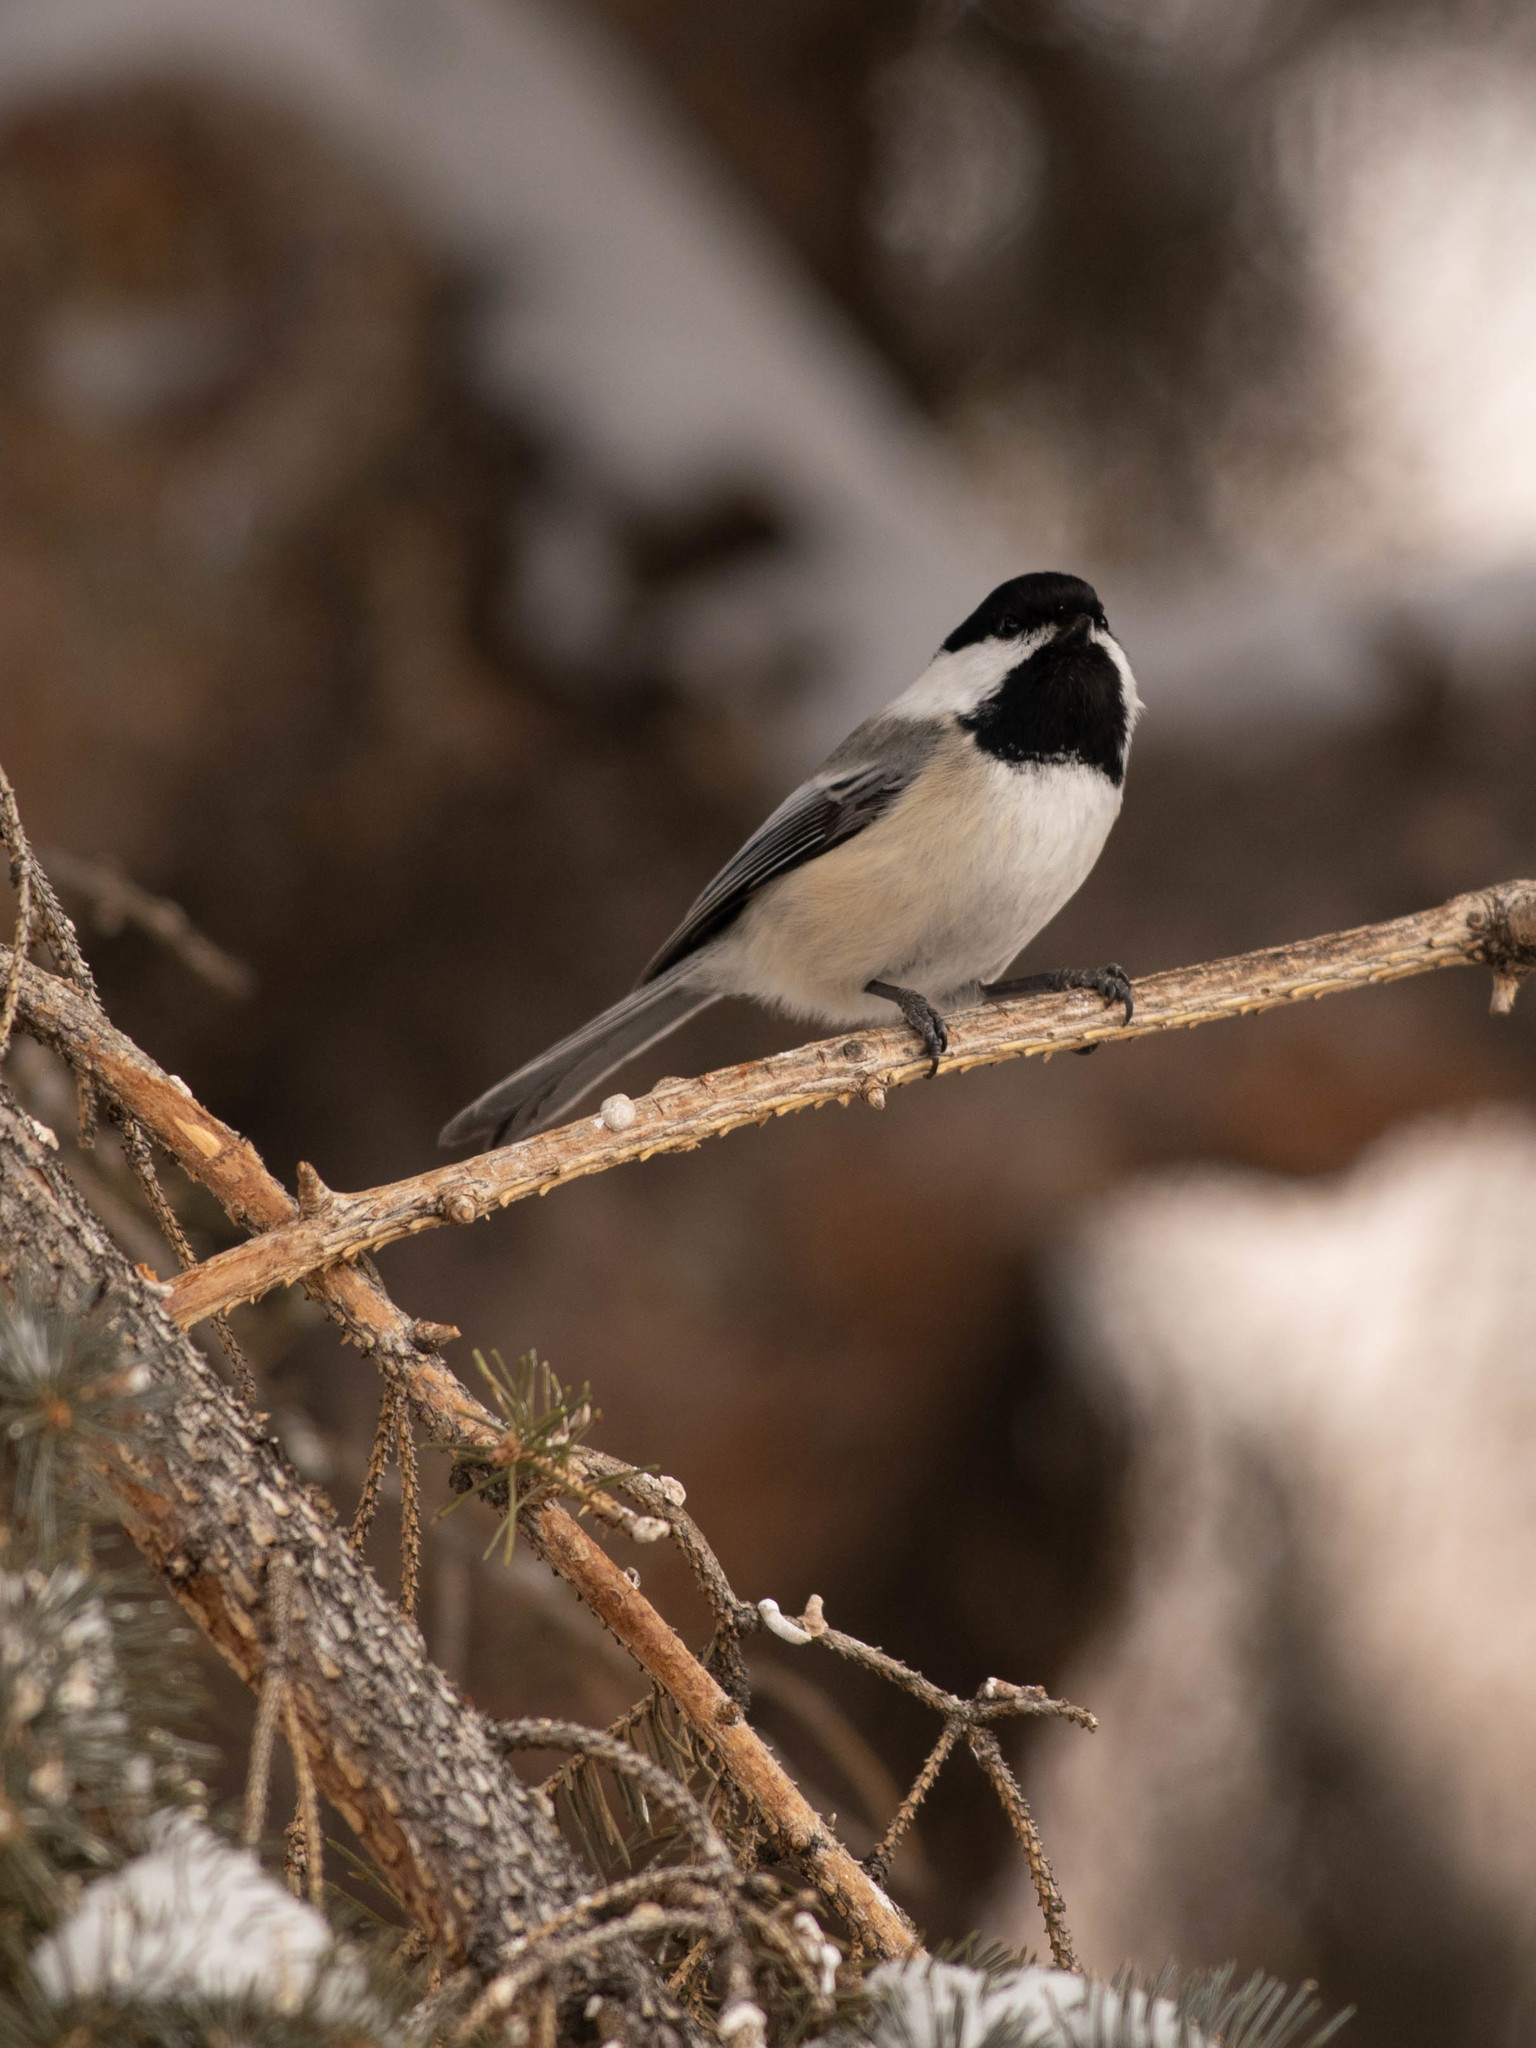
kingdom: Animalia
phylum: Chordata
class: Aves
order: Passeriformes
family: Paridae
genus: Poecile
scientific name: Poecile atricapillus
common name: Black-capped chickadee
